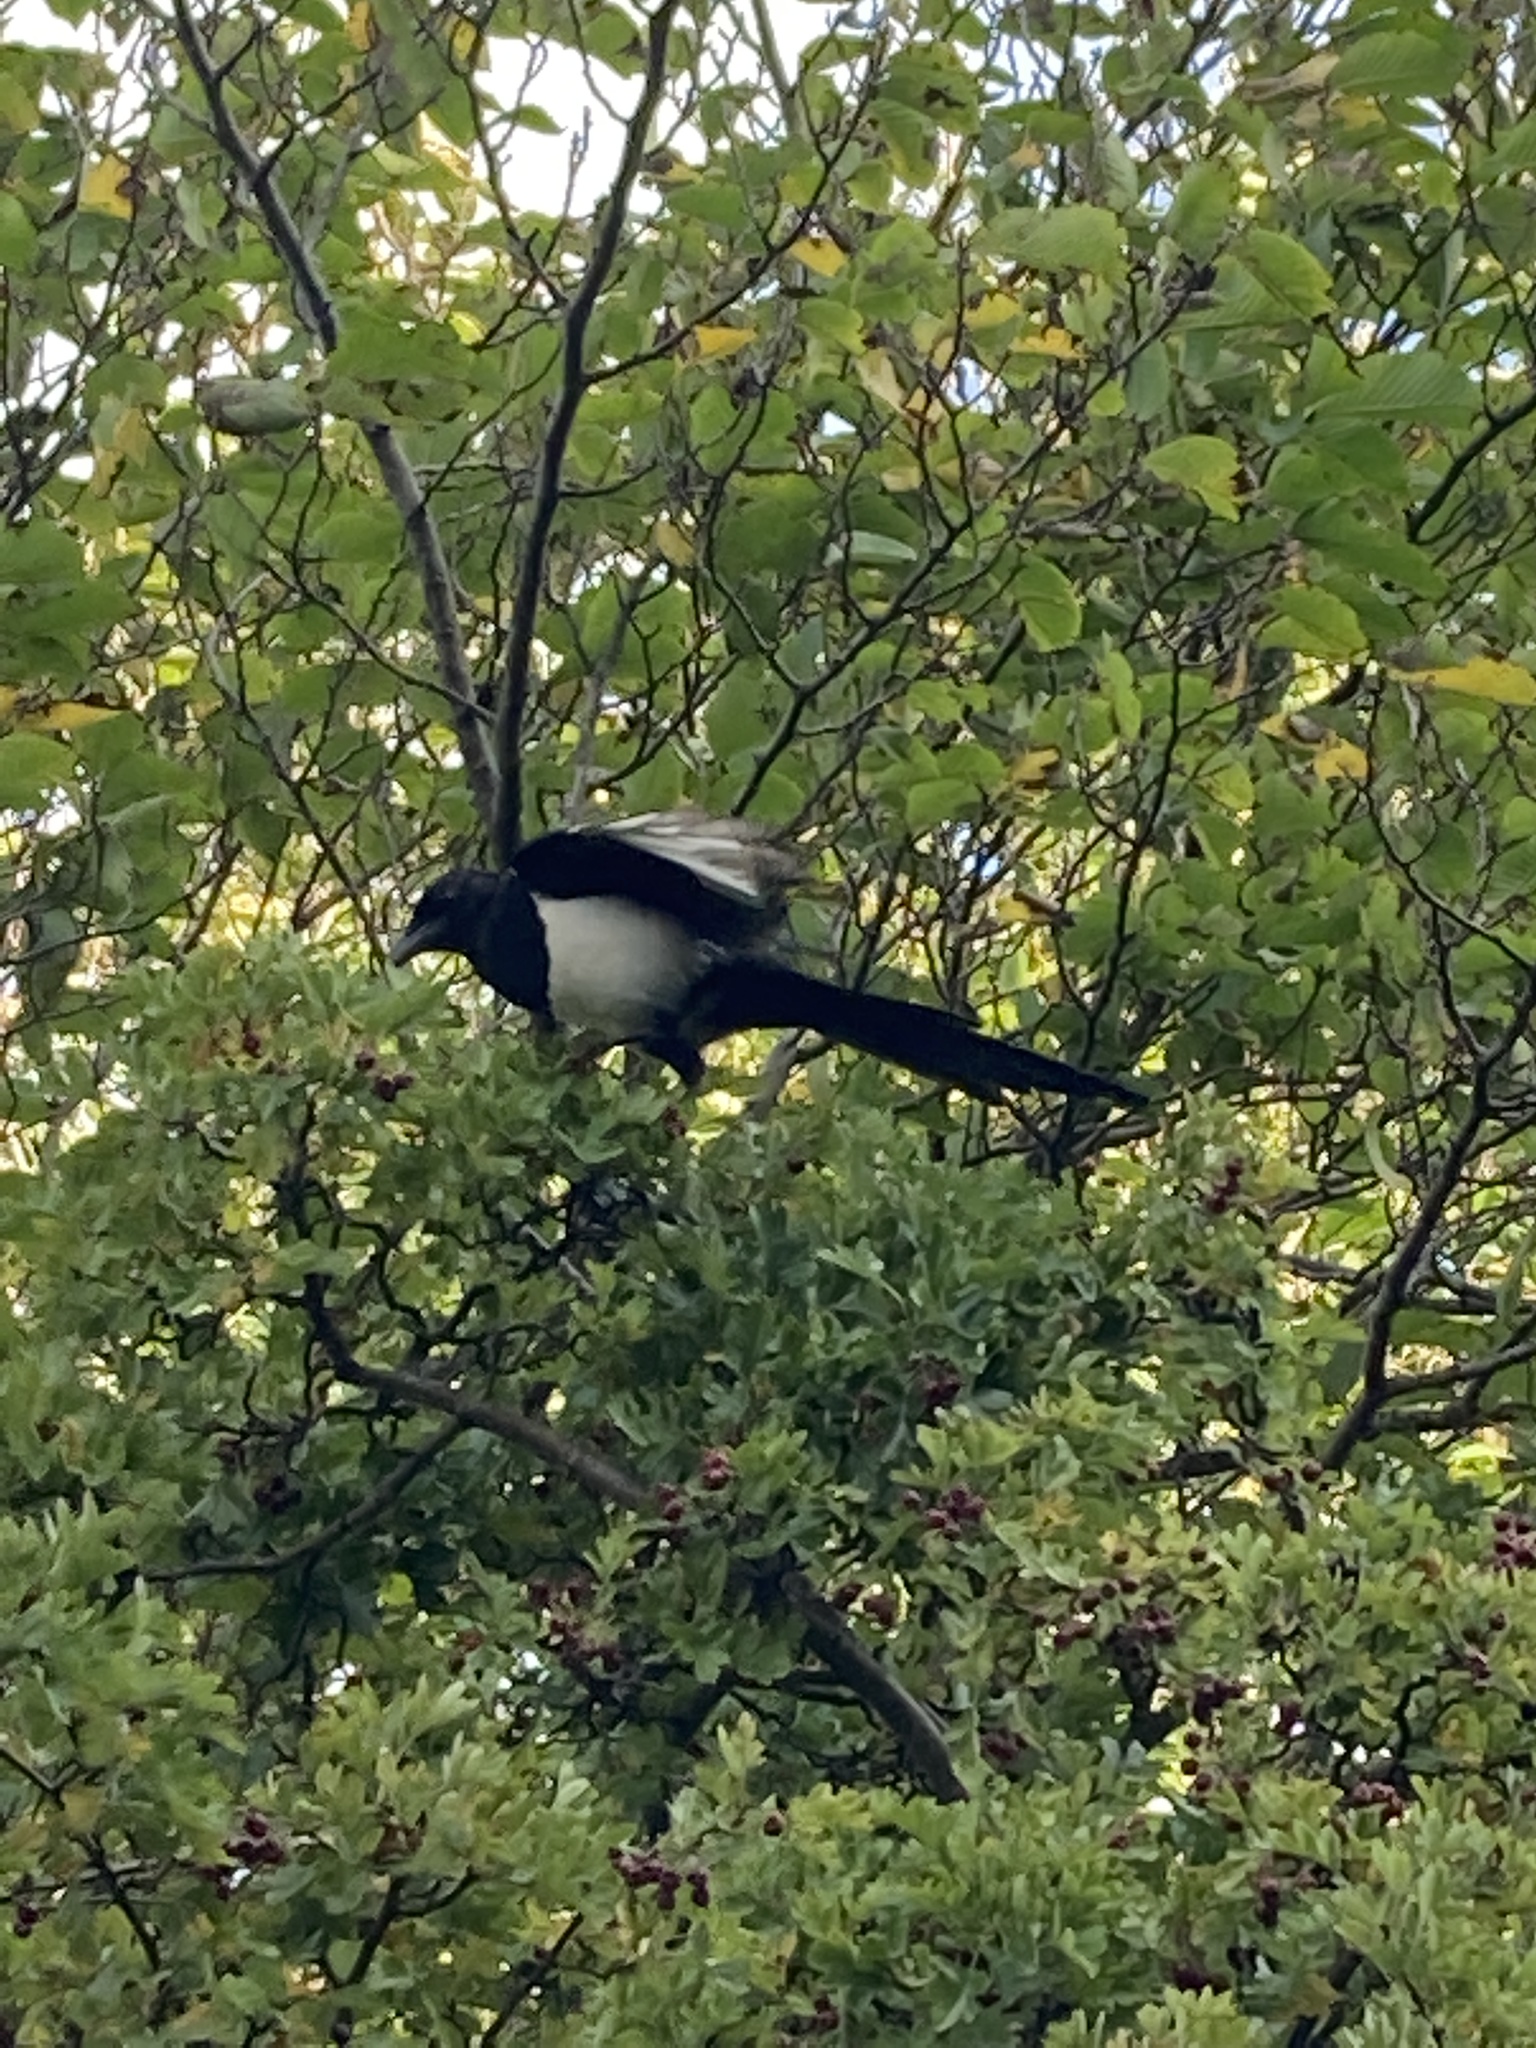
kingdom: Animalia
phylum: Chordata
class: Aves
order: Passeriformes
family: Corvidae
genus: Pica
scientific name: Pica pica
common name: Eurasian magpie
